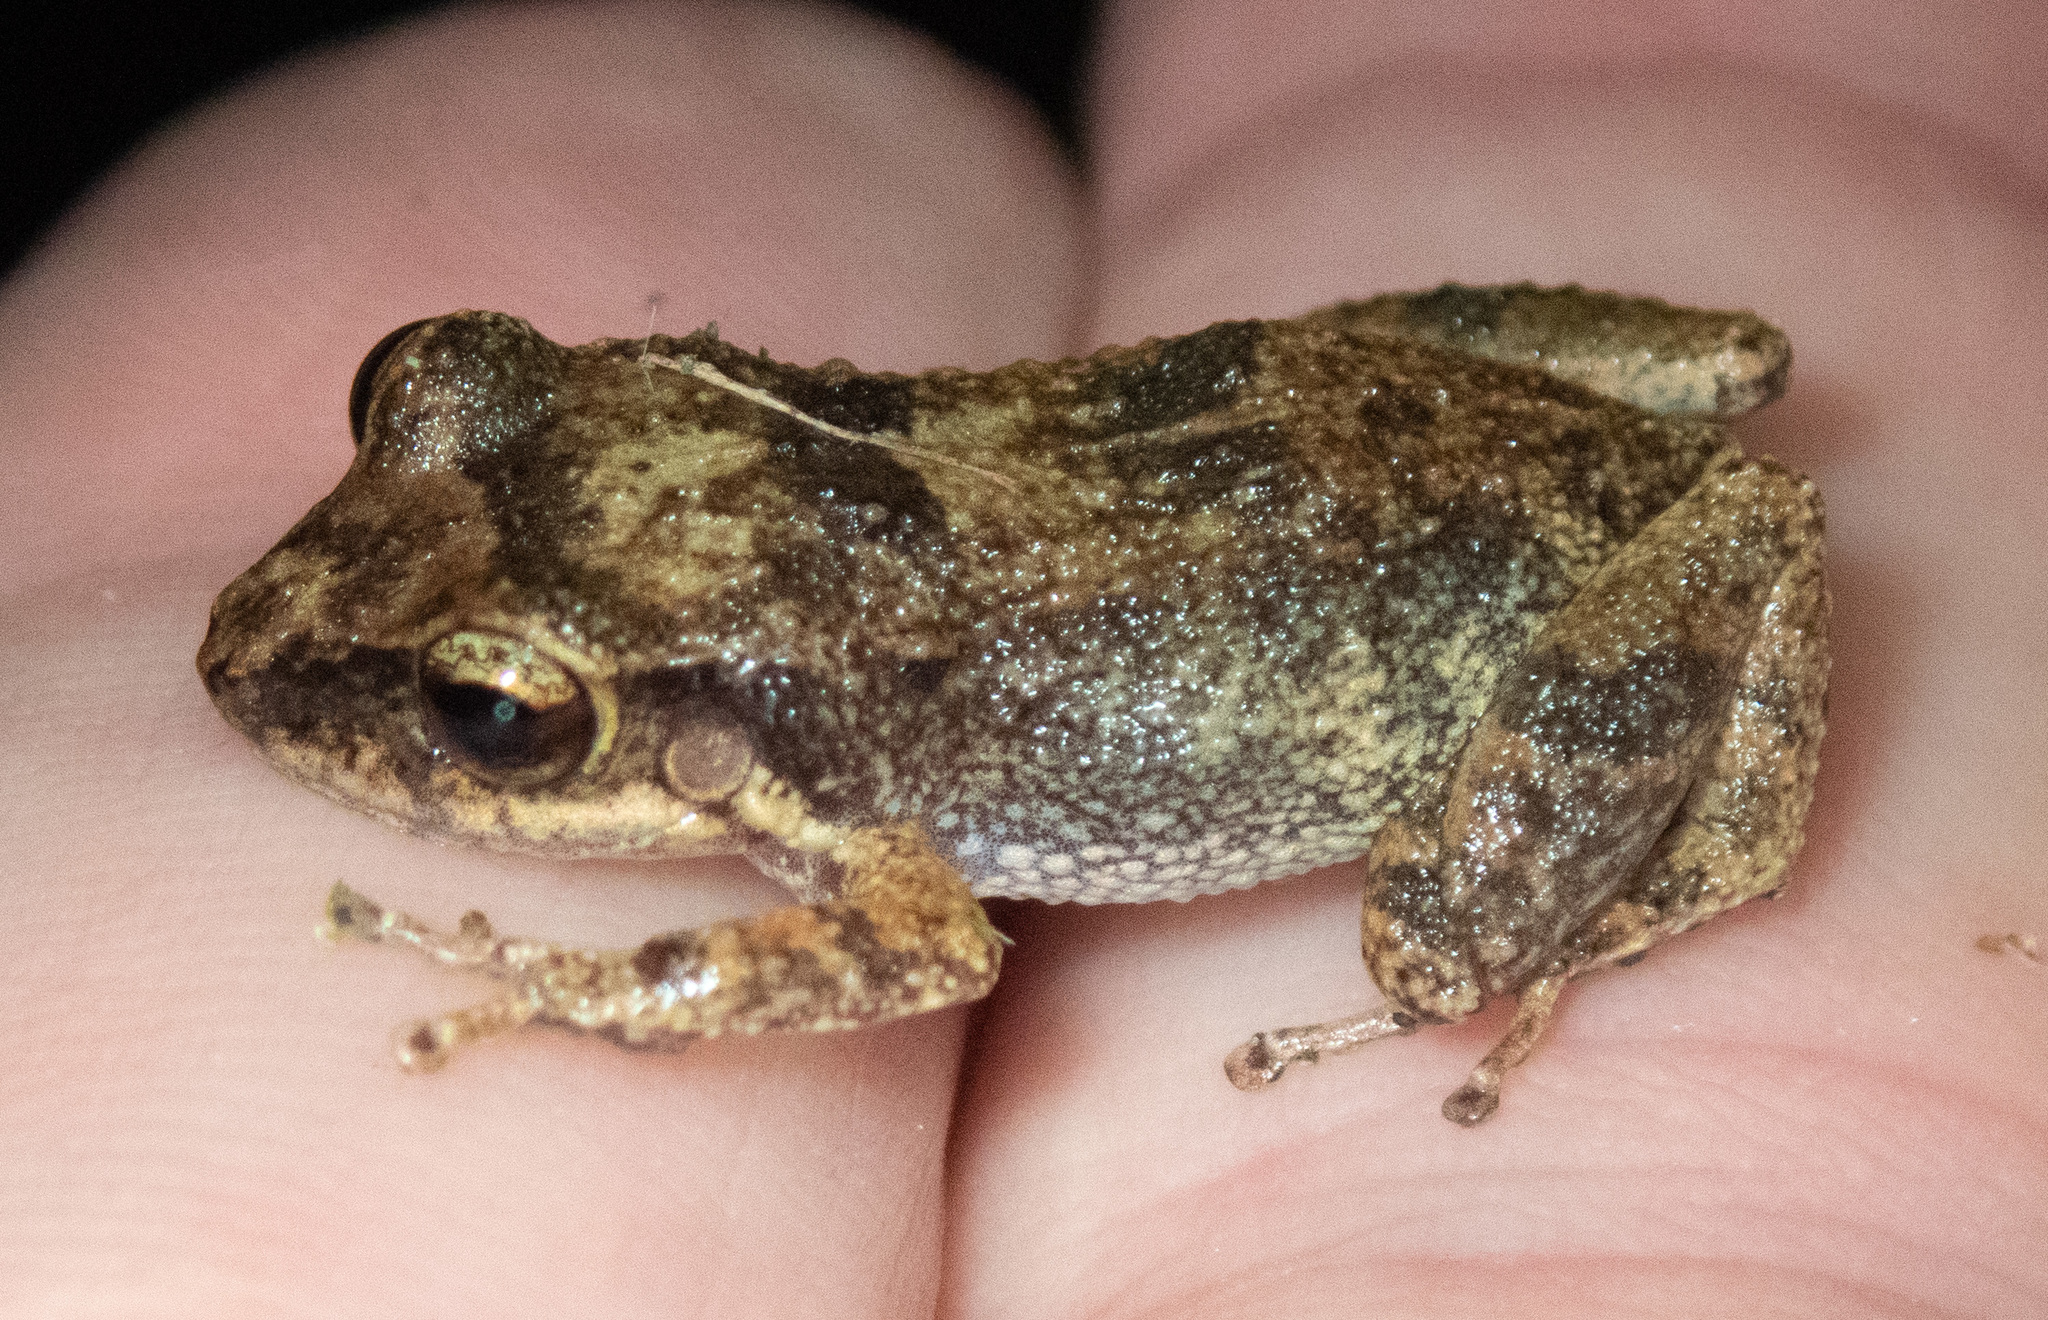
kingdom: Animalia
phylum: Chordata
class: Amphibia
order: Anura
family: Eleutherodactylidae
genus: Eleutherodactylus
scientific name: Eleutherodactylus johnstonei
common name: Johnstone's robber frog
